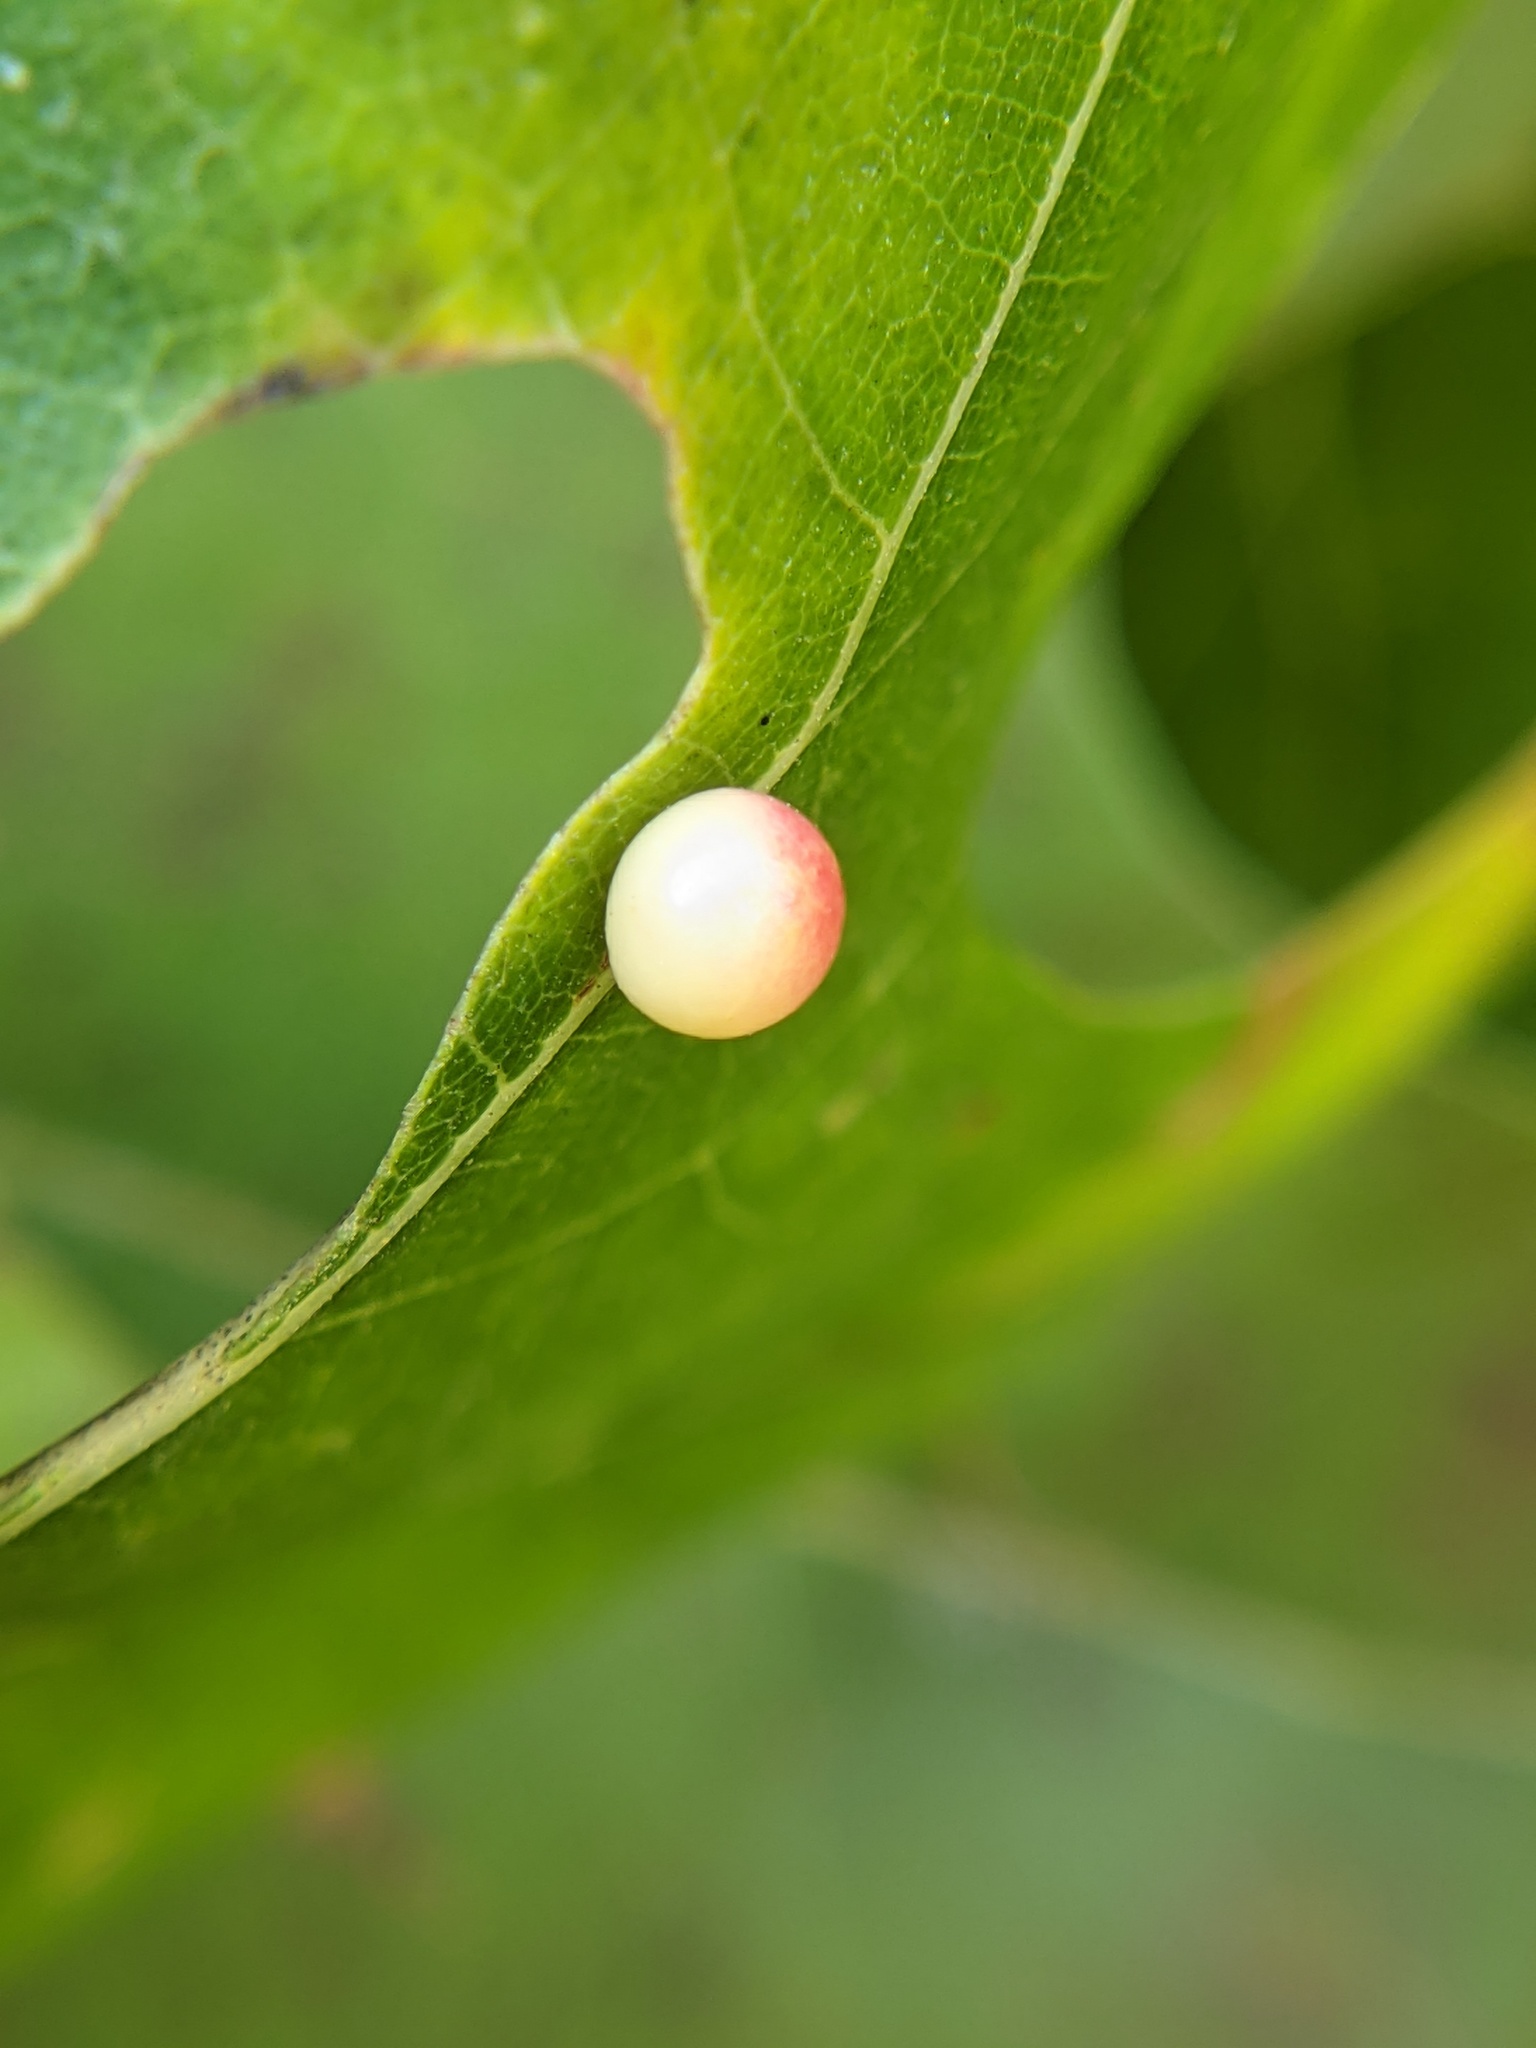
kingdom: Animalia
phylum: Arthropoda
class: Insecta
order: Hymenoptera
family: Cynipidae
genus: Zopheroteras
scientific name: Zopheroteras
